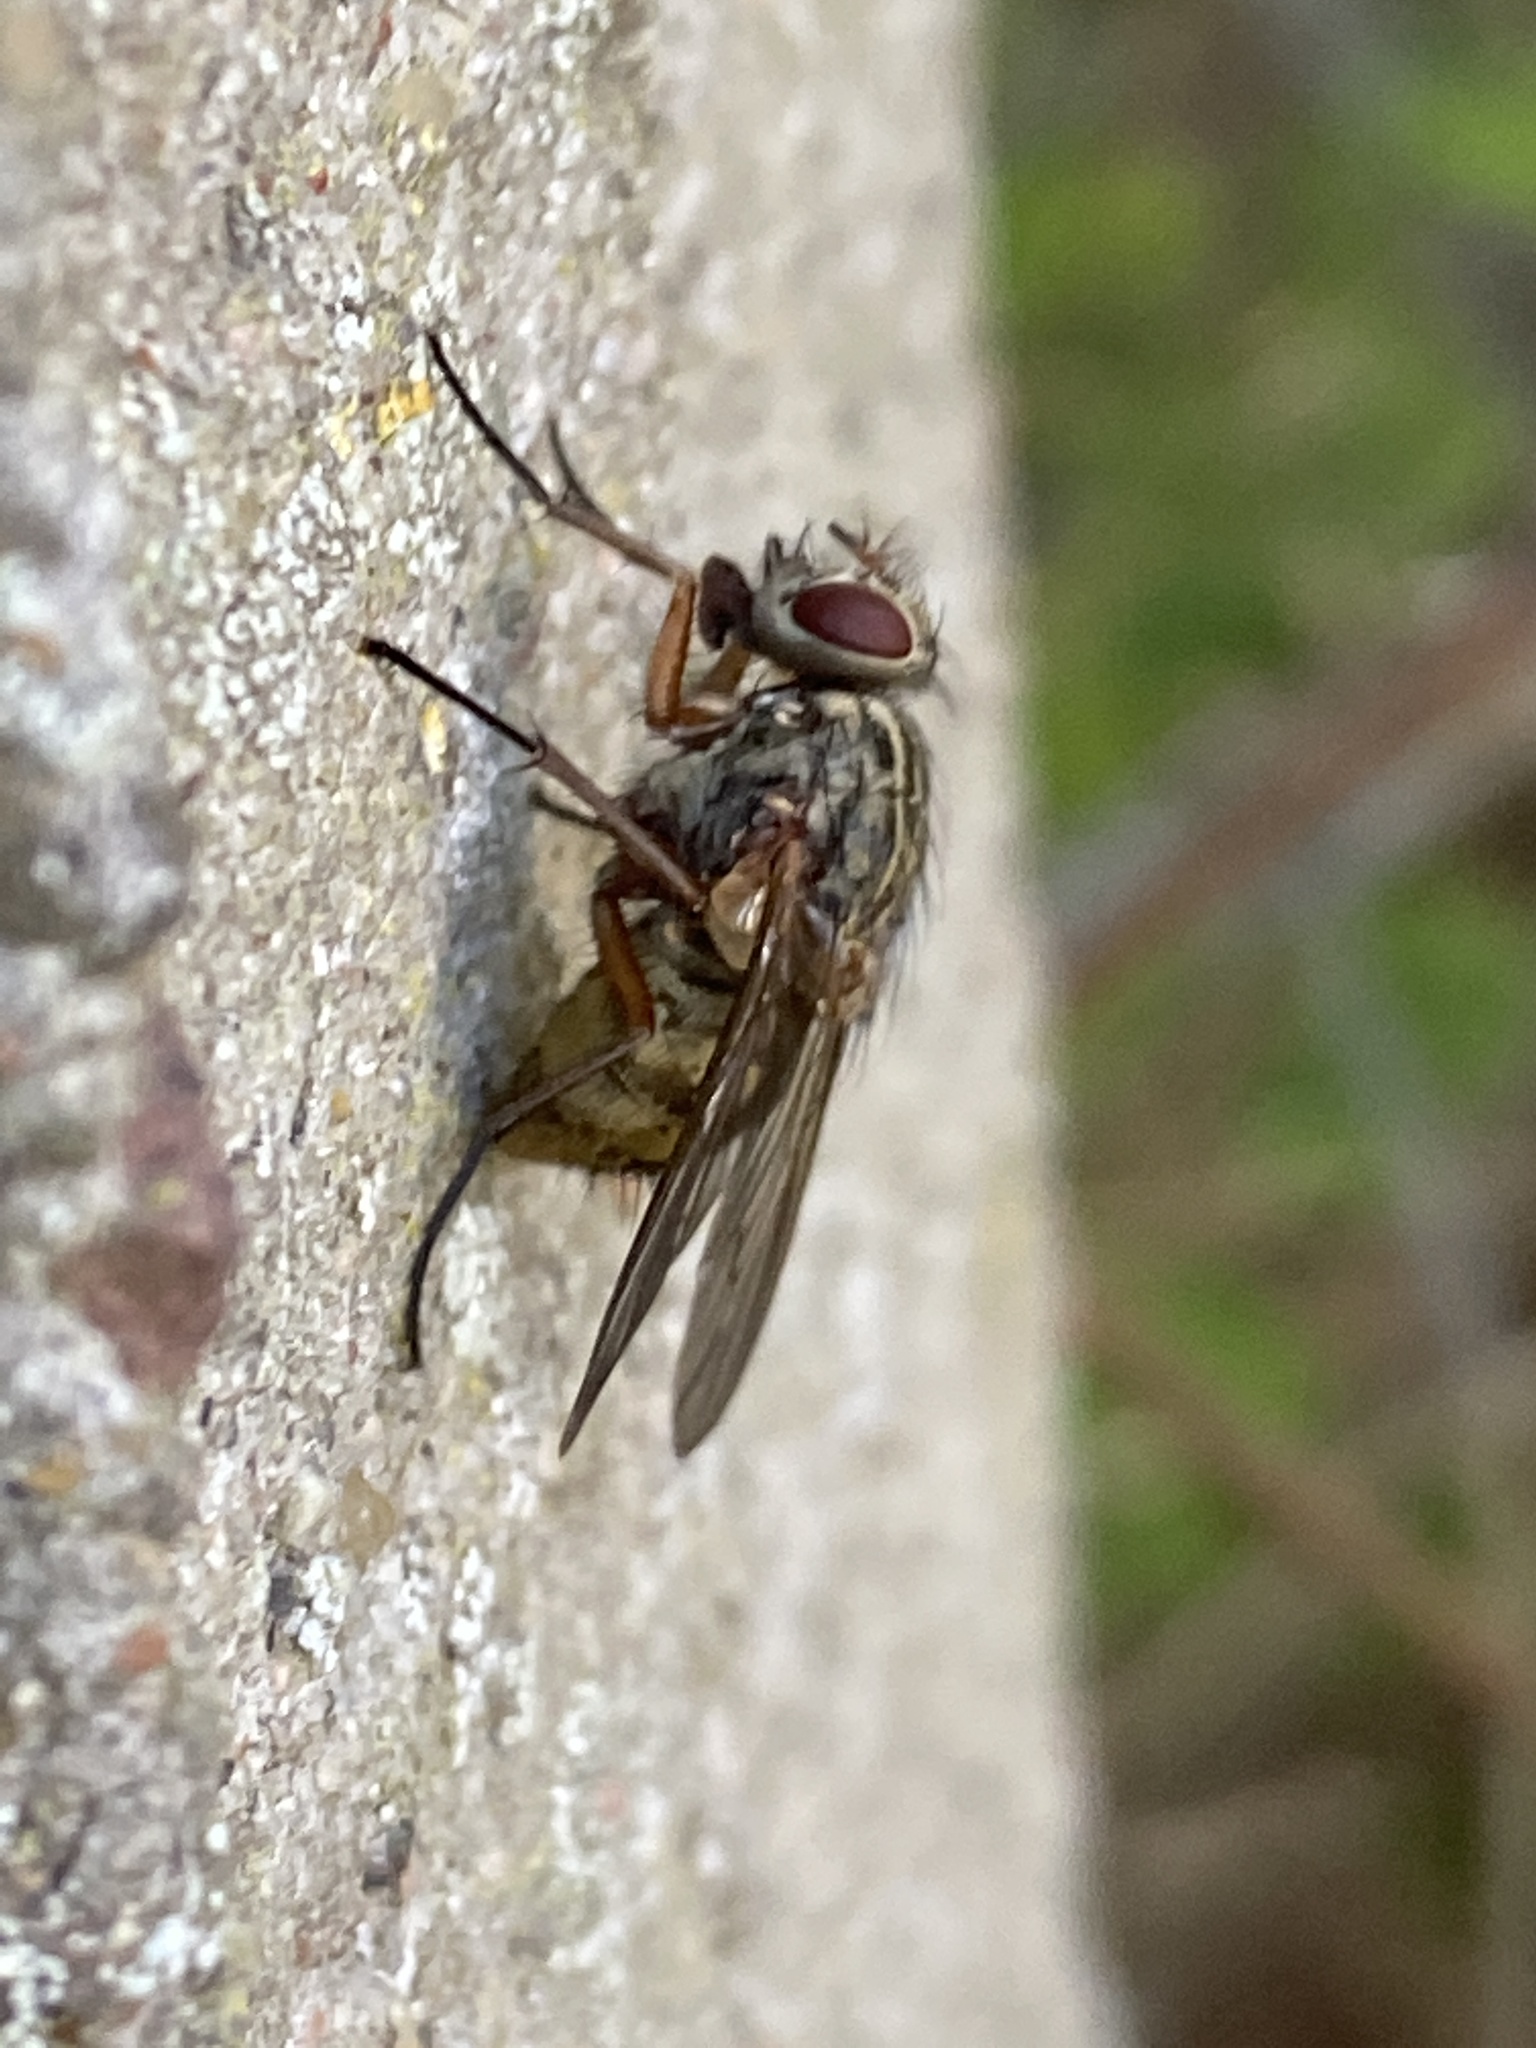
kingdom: Animalia
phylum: Arthropoda
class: Insecta
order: Diptera
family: Muscidae
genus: Phaonia
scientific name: Phaonia valida
